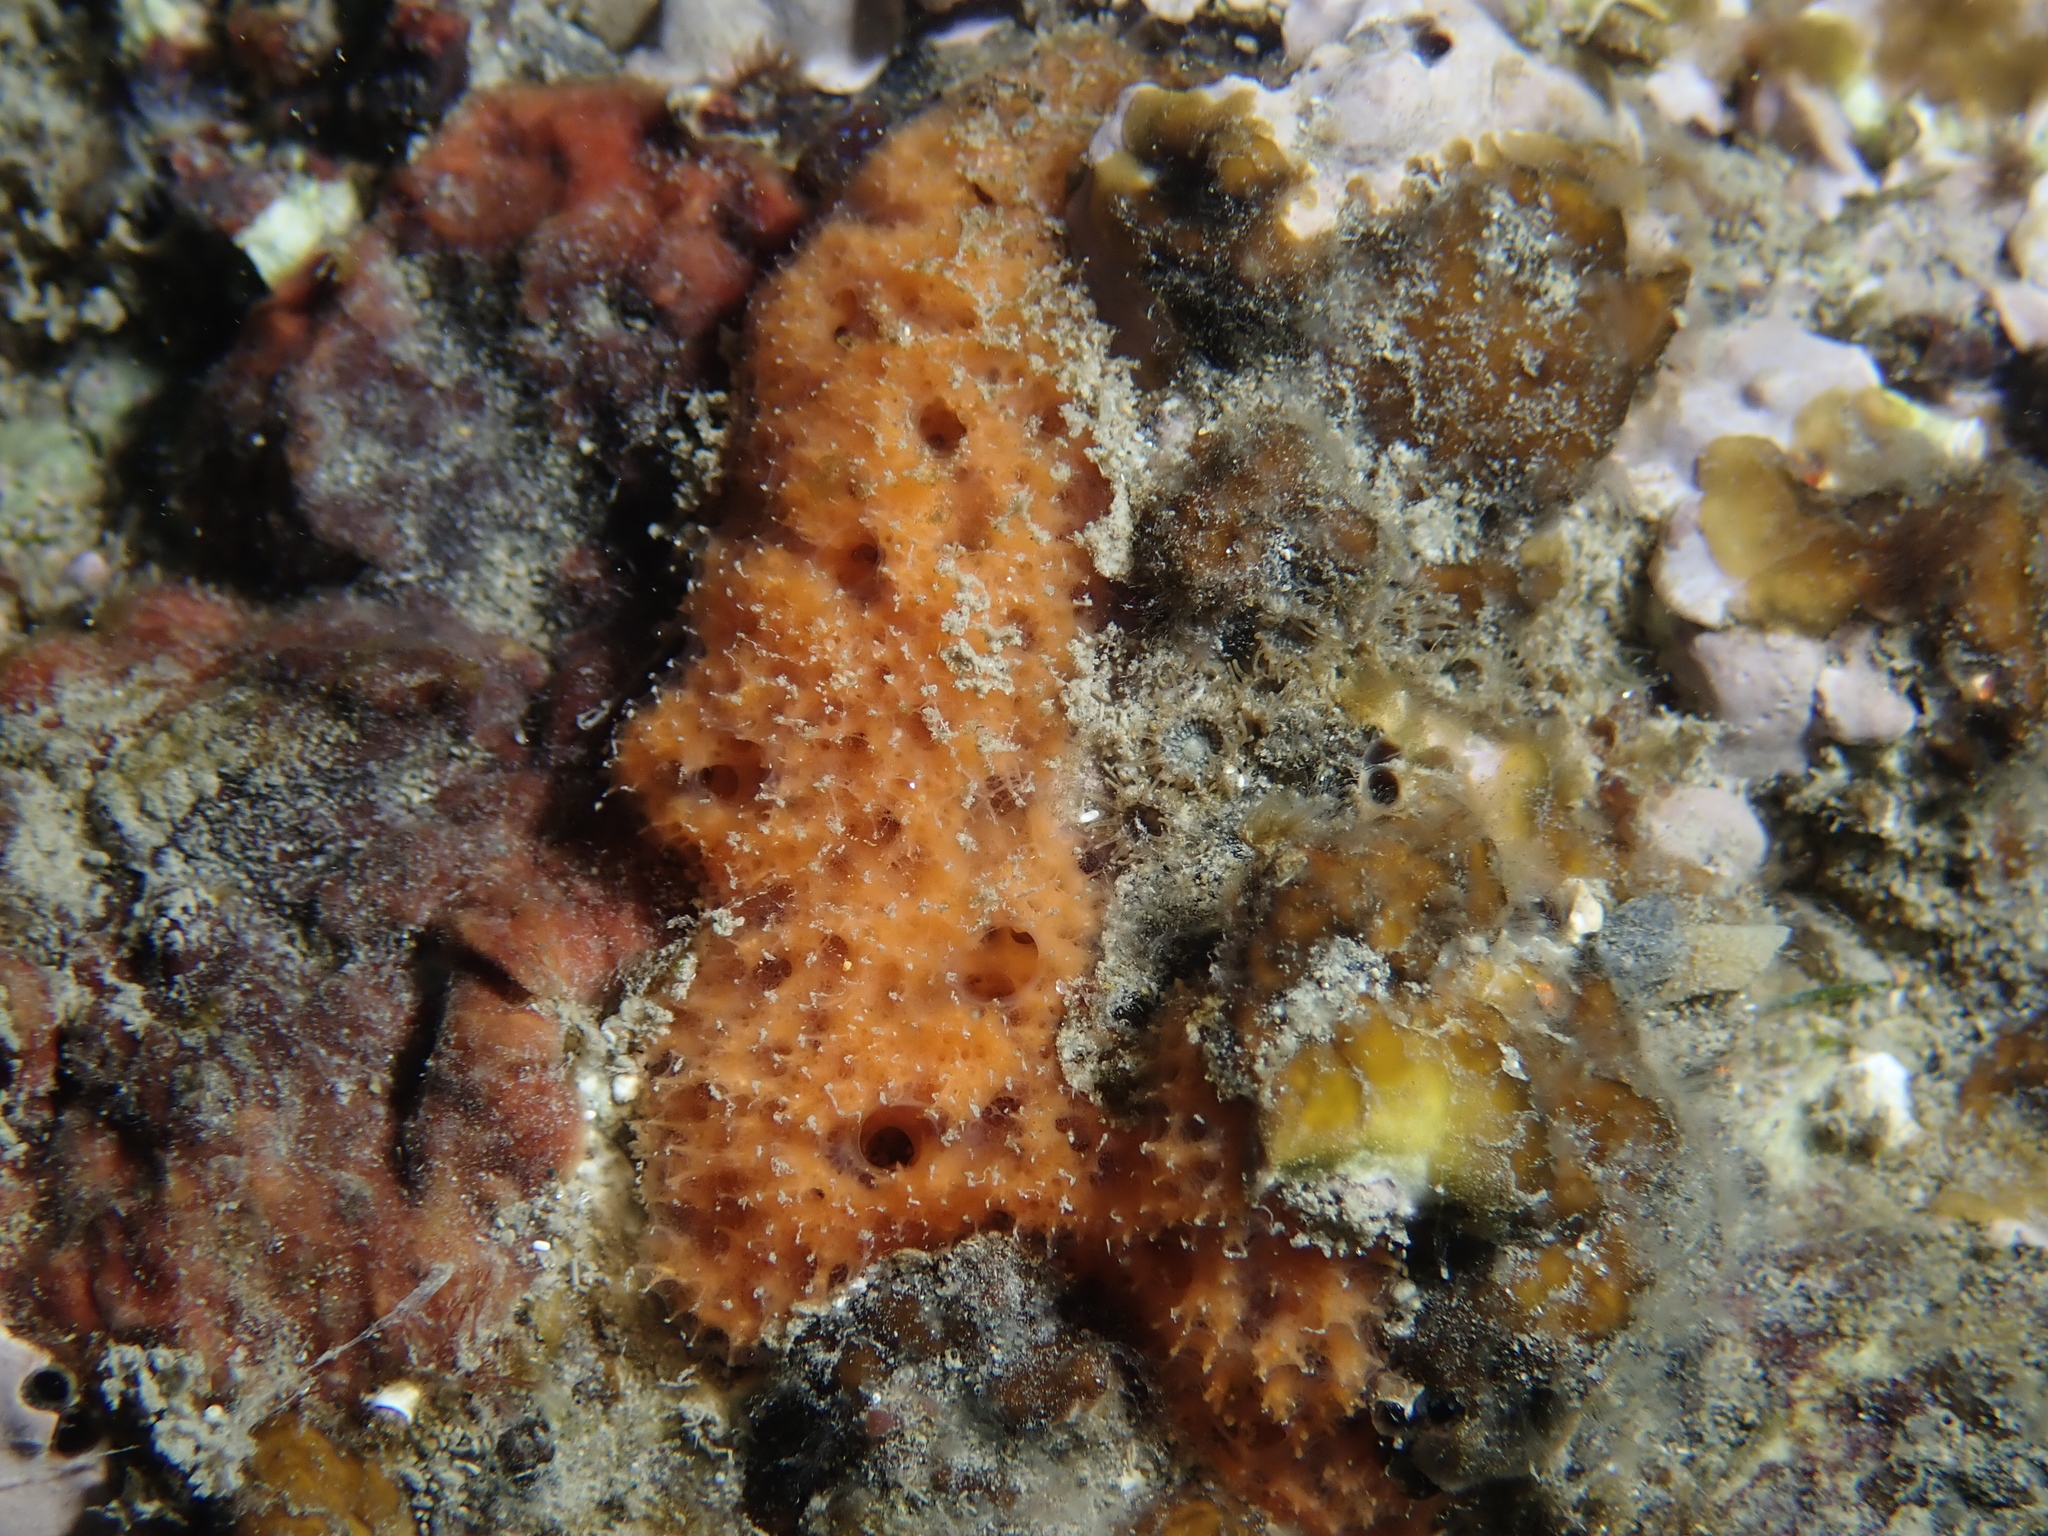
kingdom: Animalia
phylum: Porifera
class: Demospongiae
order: Axinellida
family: Stelligeridae
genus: Halicnemia
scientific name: Halicnemia gallica
